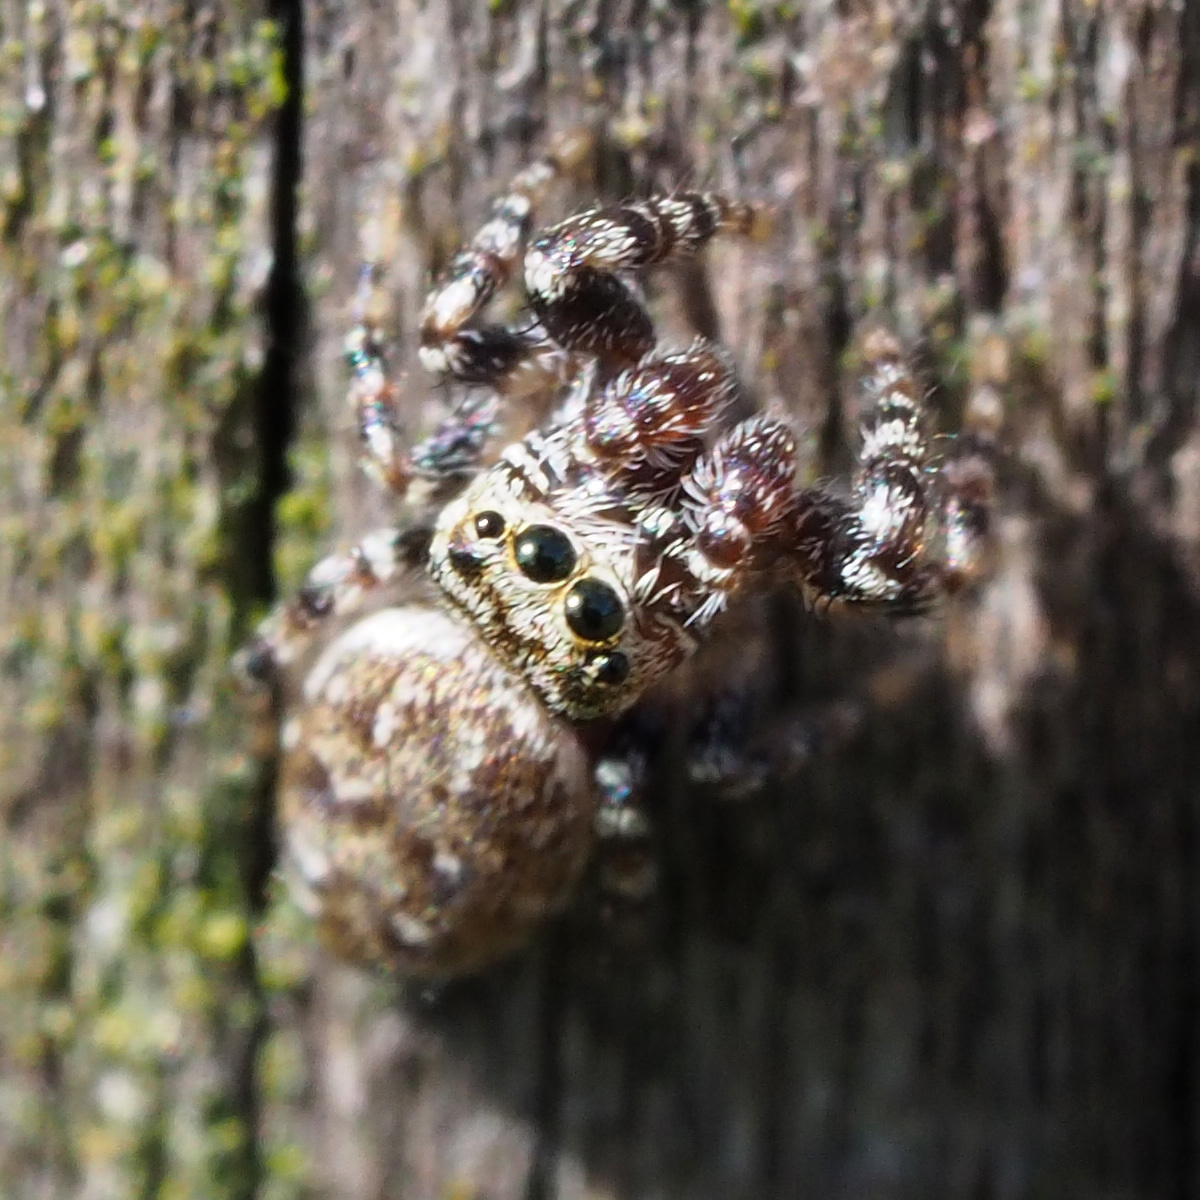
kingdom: Animalia
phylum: Arthropoda
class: Arachnida
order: Araneae
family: Salticidae
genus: Pelegrina
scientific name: Pelegrina galathea
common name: Jumping spiders
